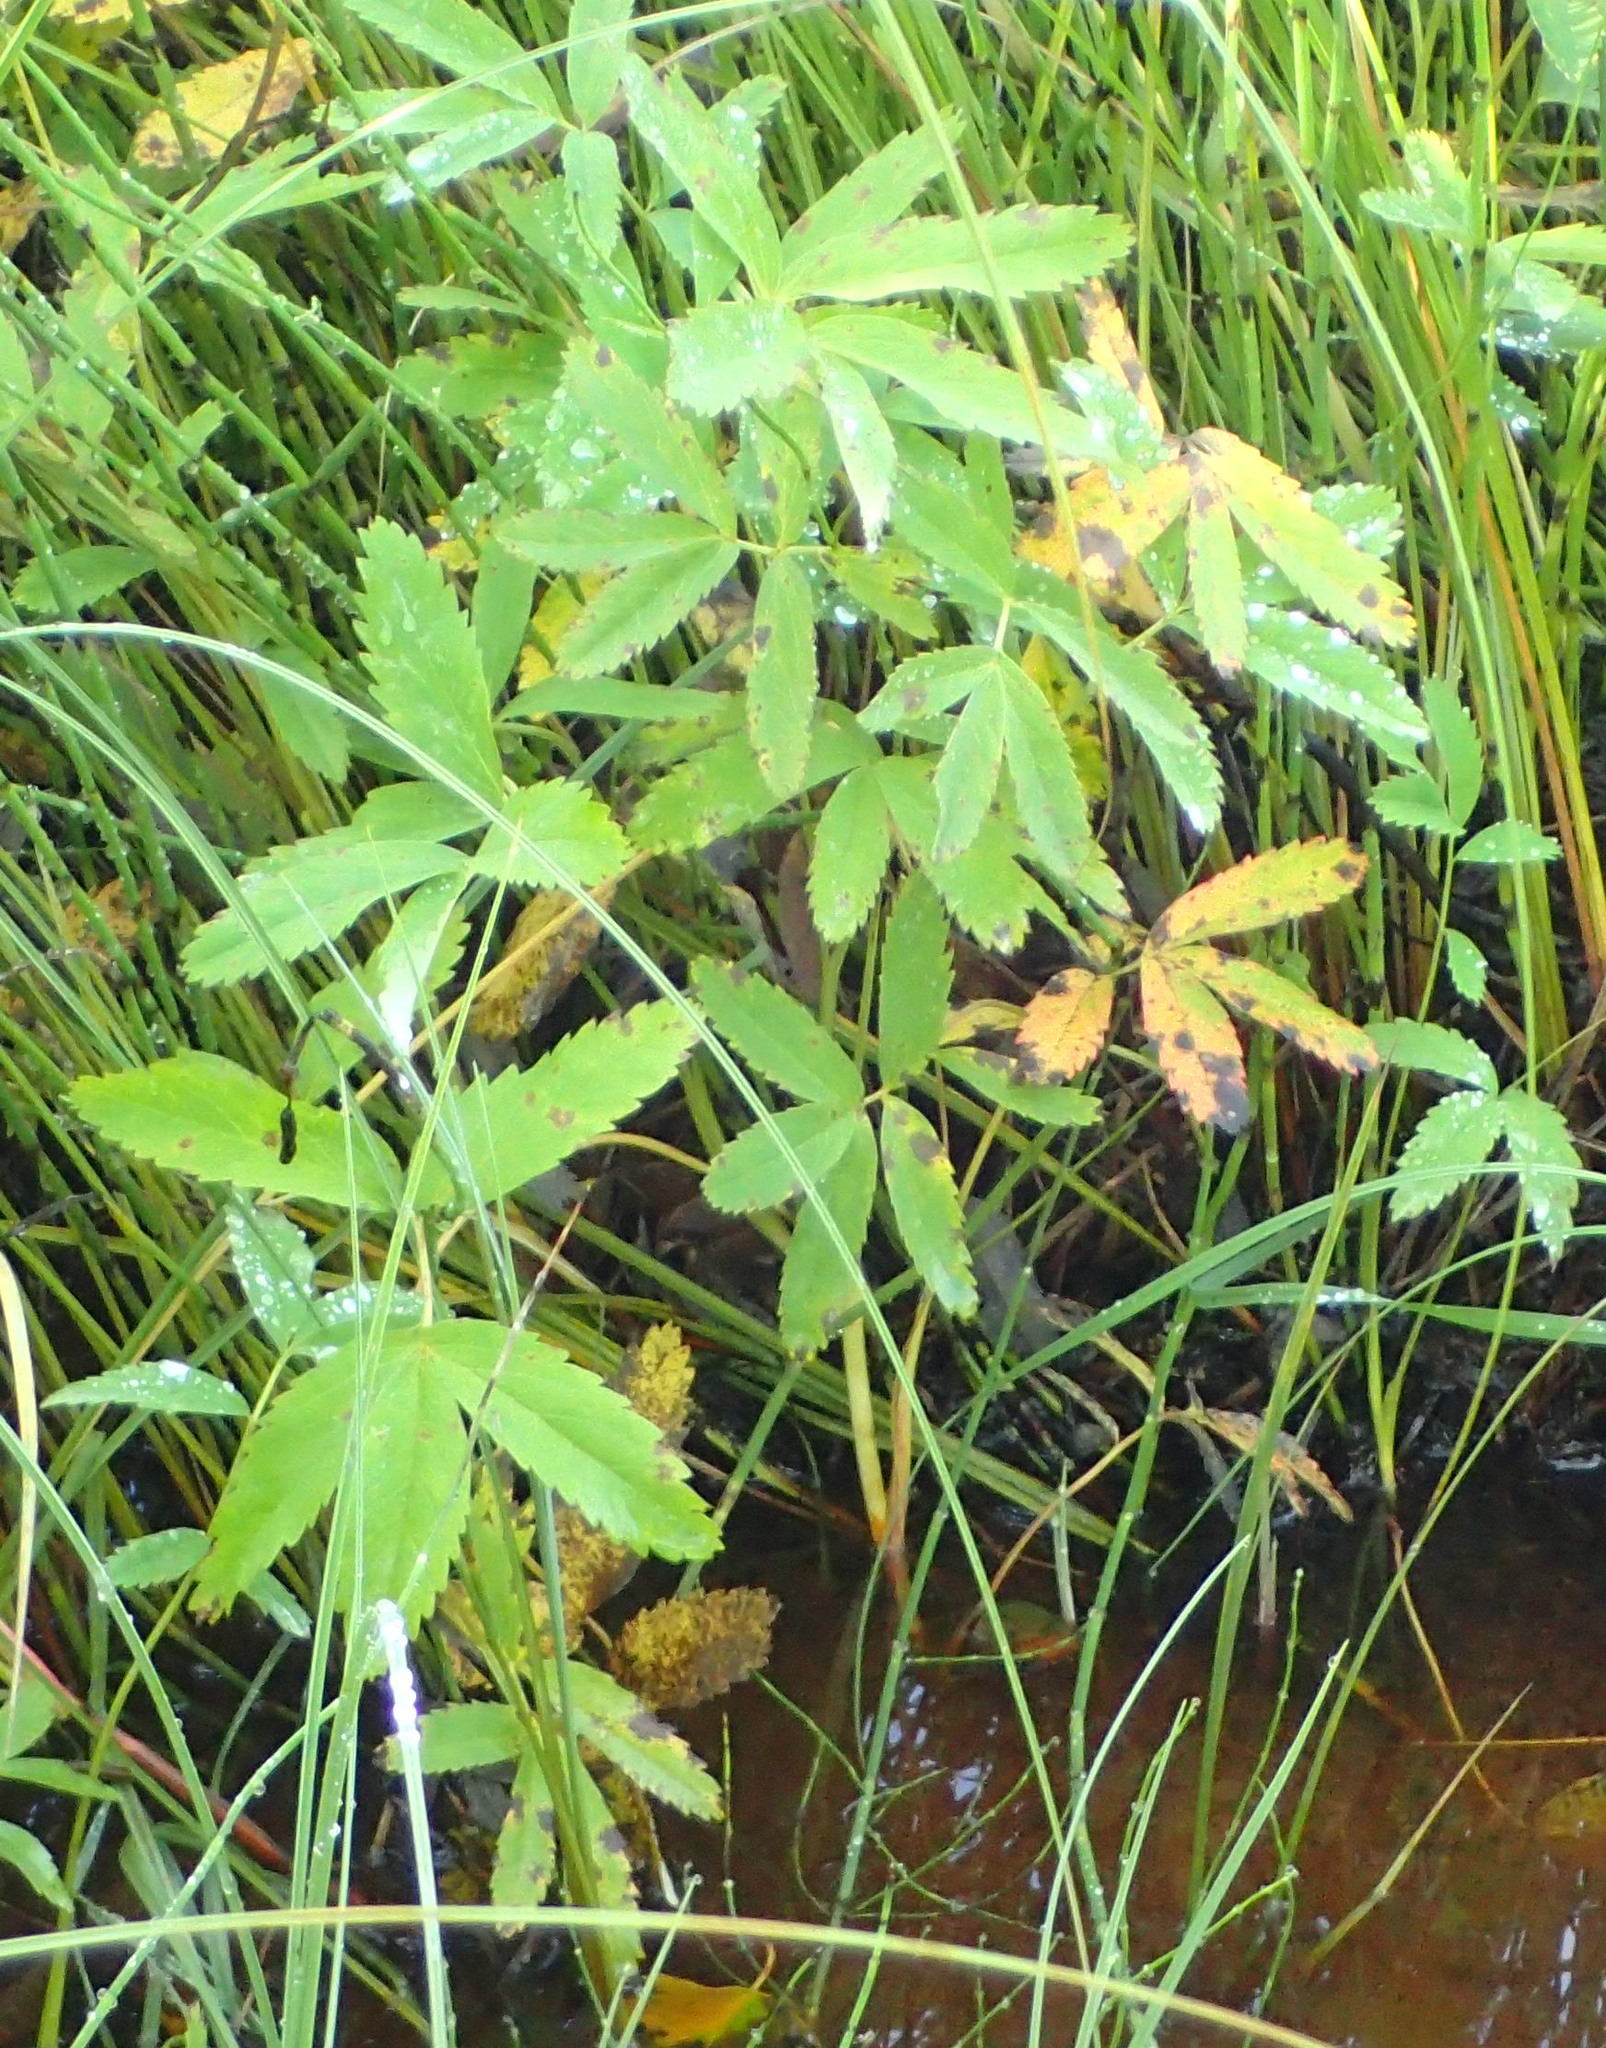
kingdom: Plantae
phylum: Tracheophyta
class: Magnoliopsida
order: Rosales
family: Rosaceae
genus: Comarum
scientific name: Comarum palustre
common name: Marsh cinquefoil
